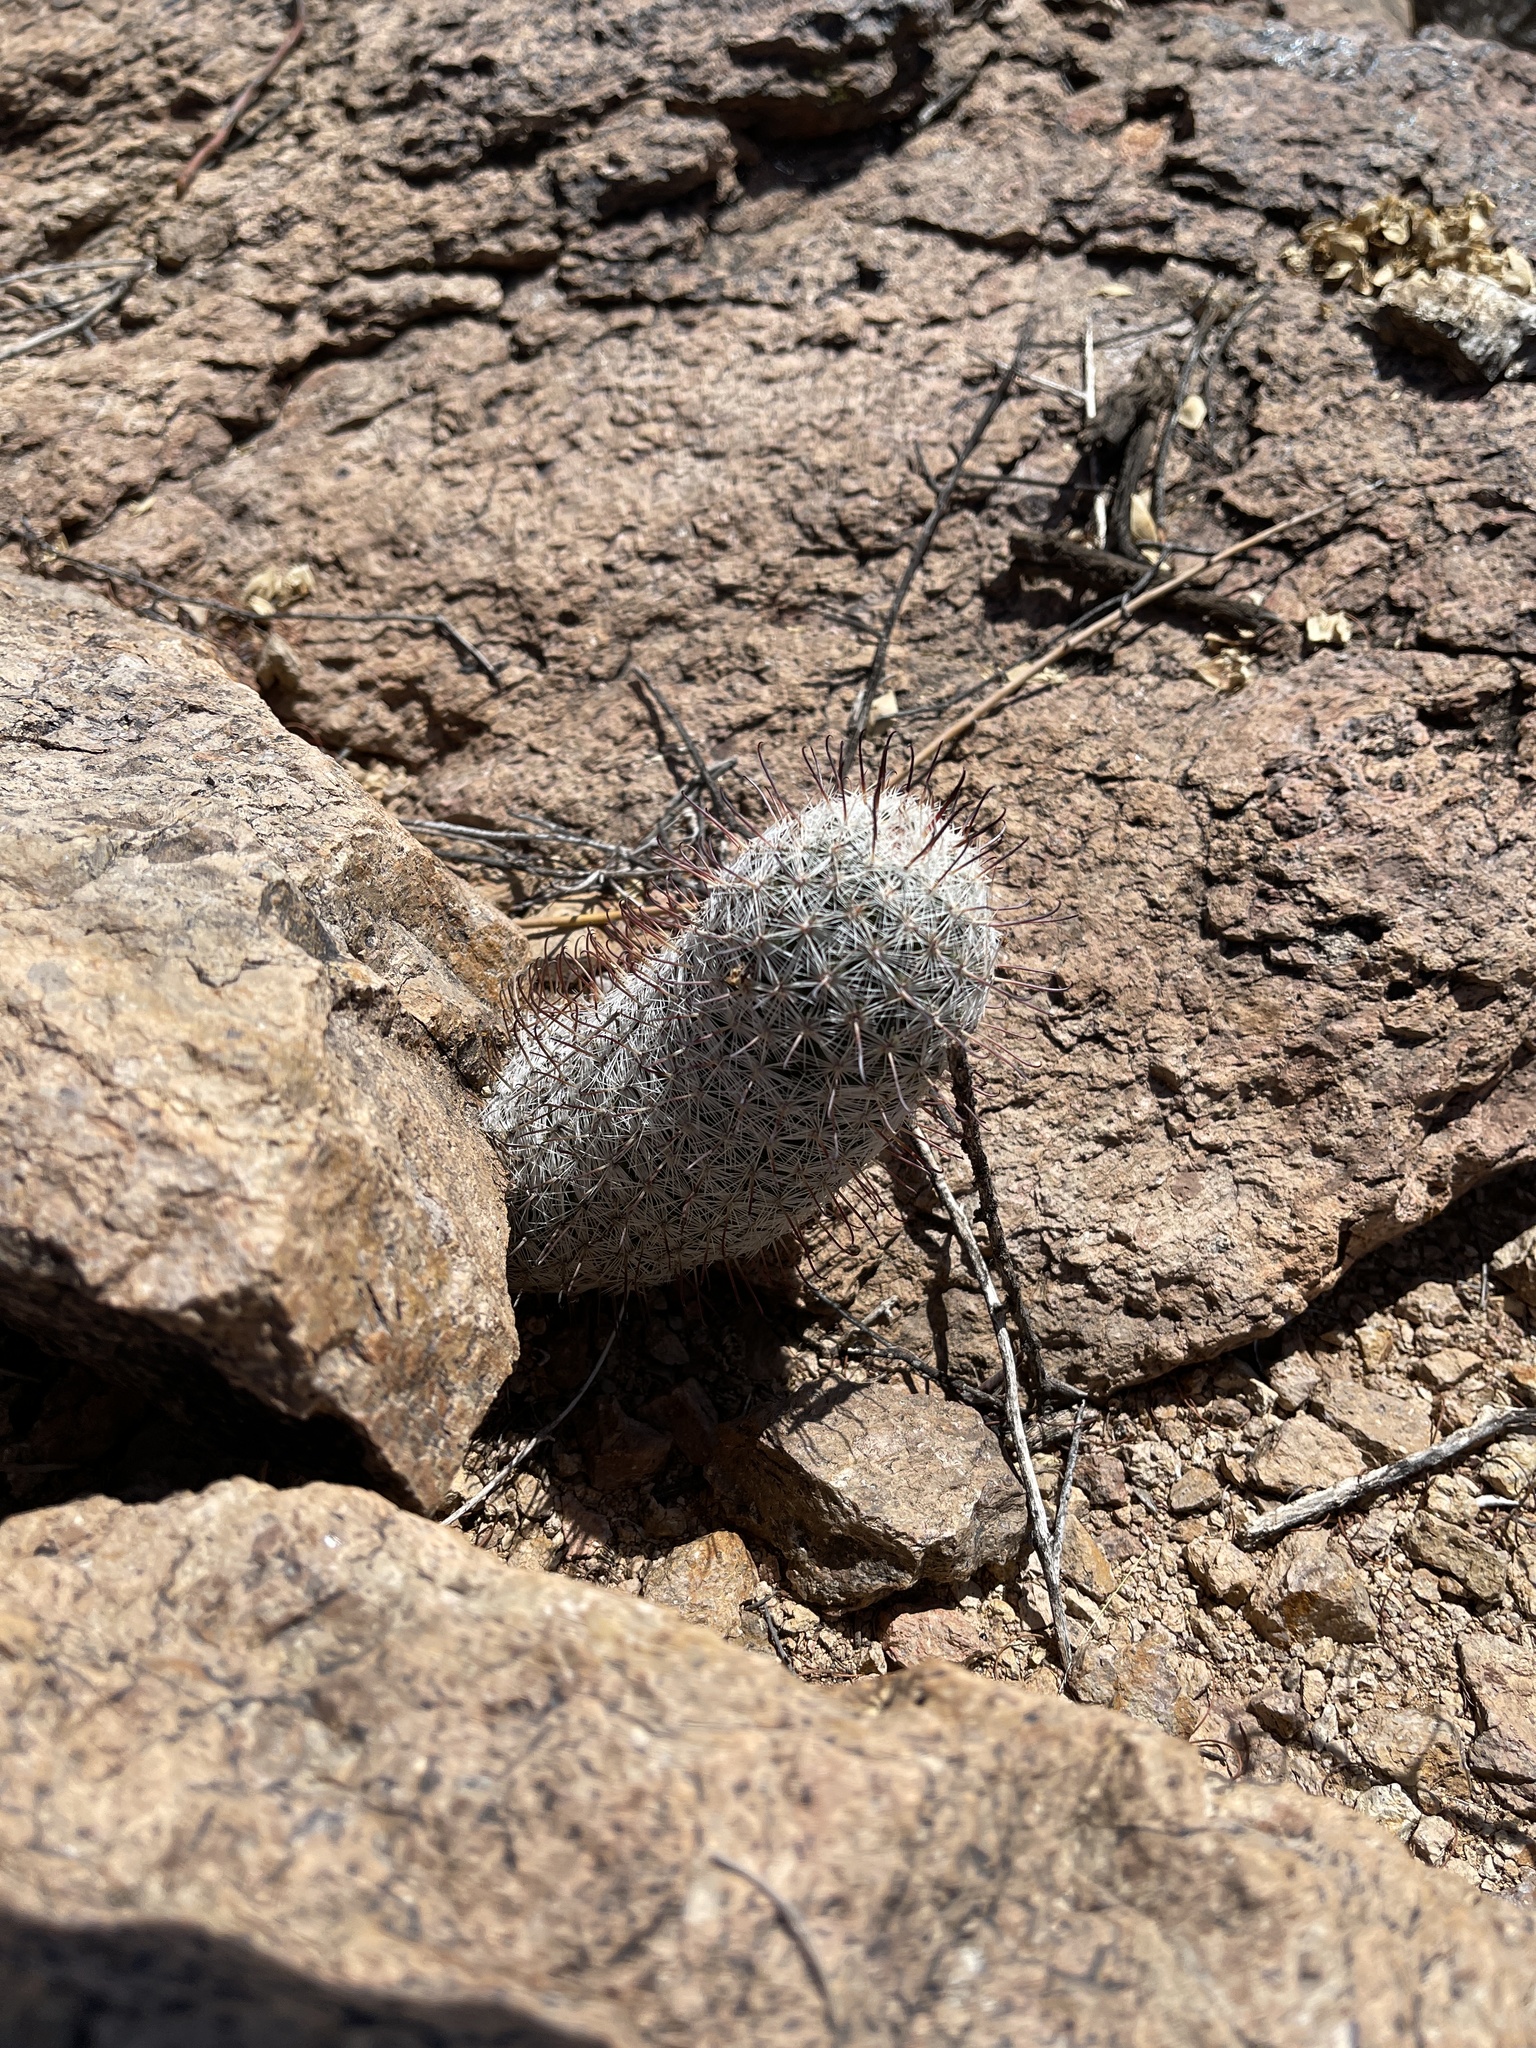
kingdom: Plantae
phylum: Tracheophyta
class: Magnoliopsida
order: Caryophyllales
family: Cactaceae
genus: Cochemiea
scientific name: Cochemiea grahamii
